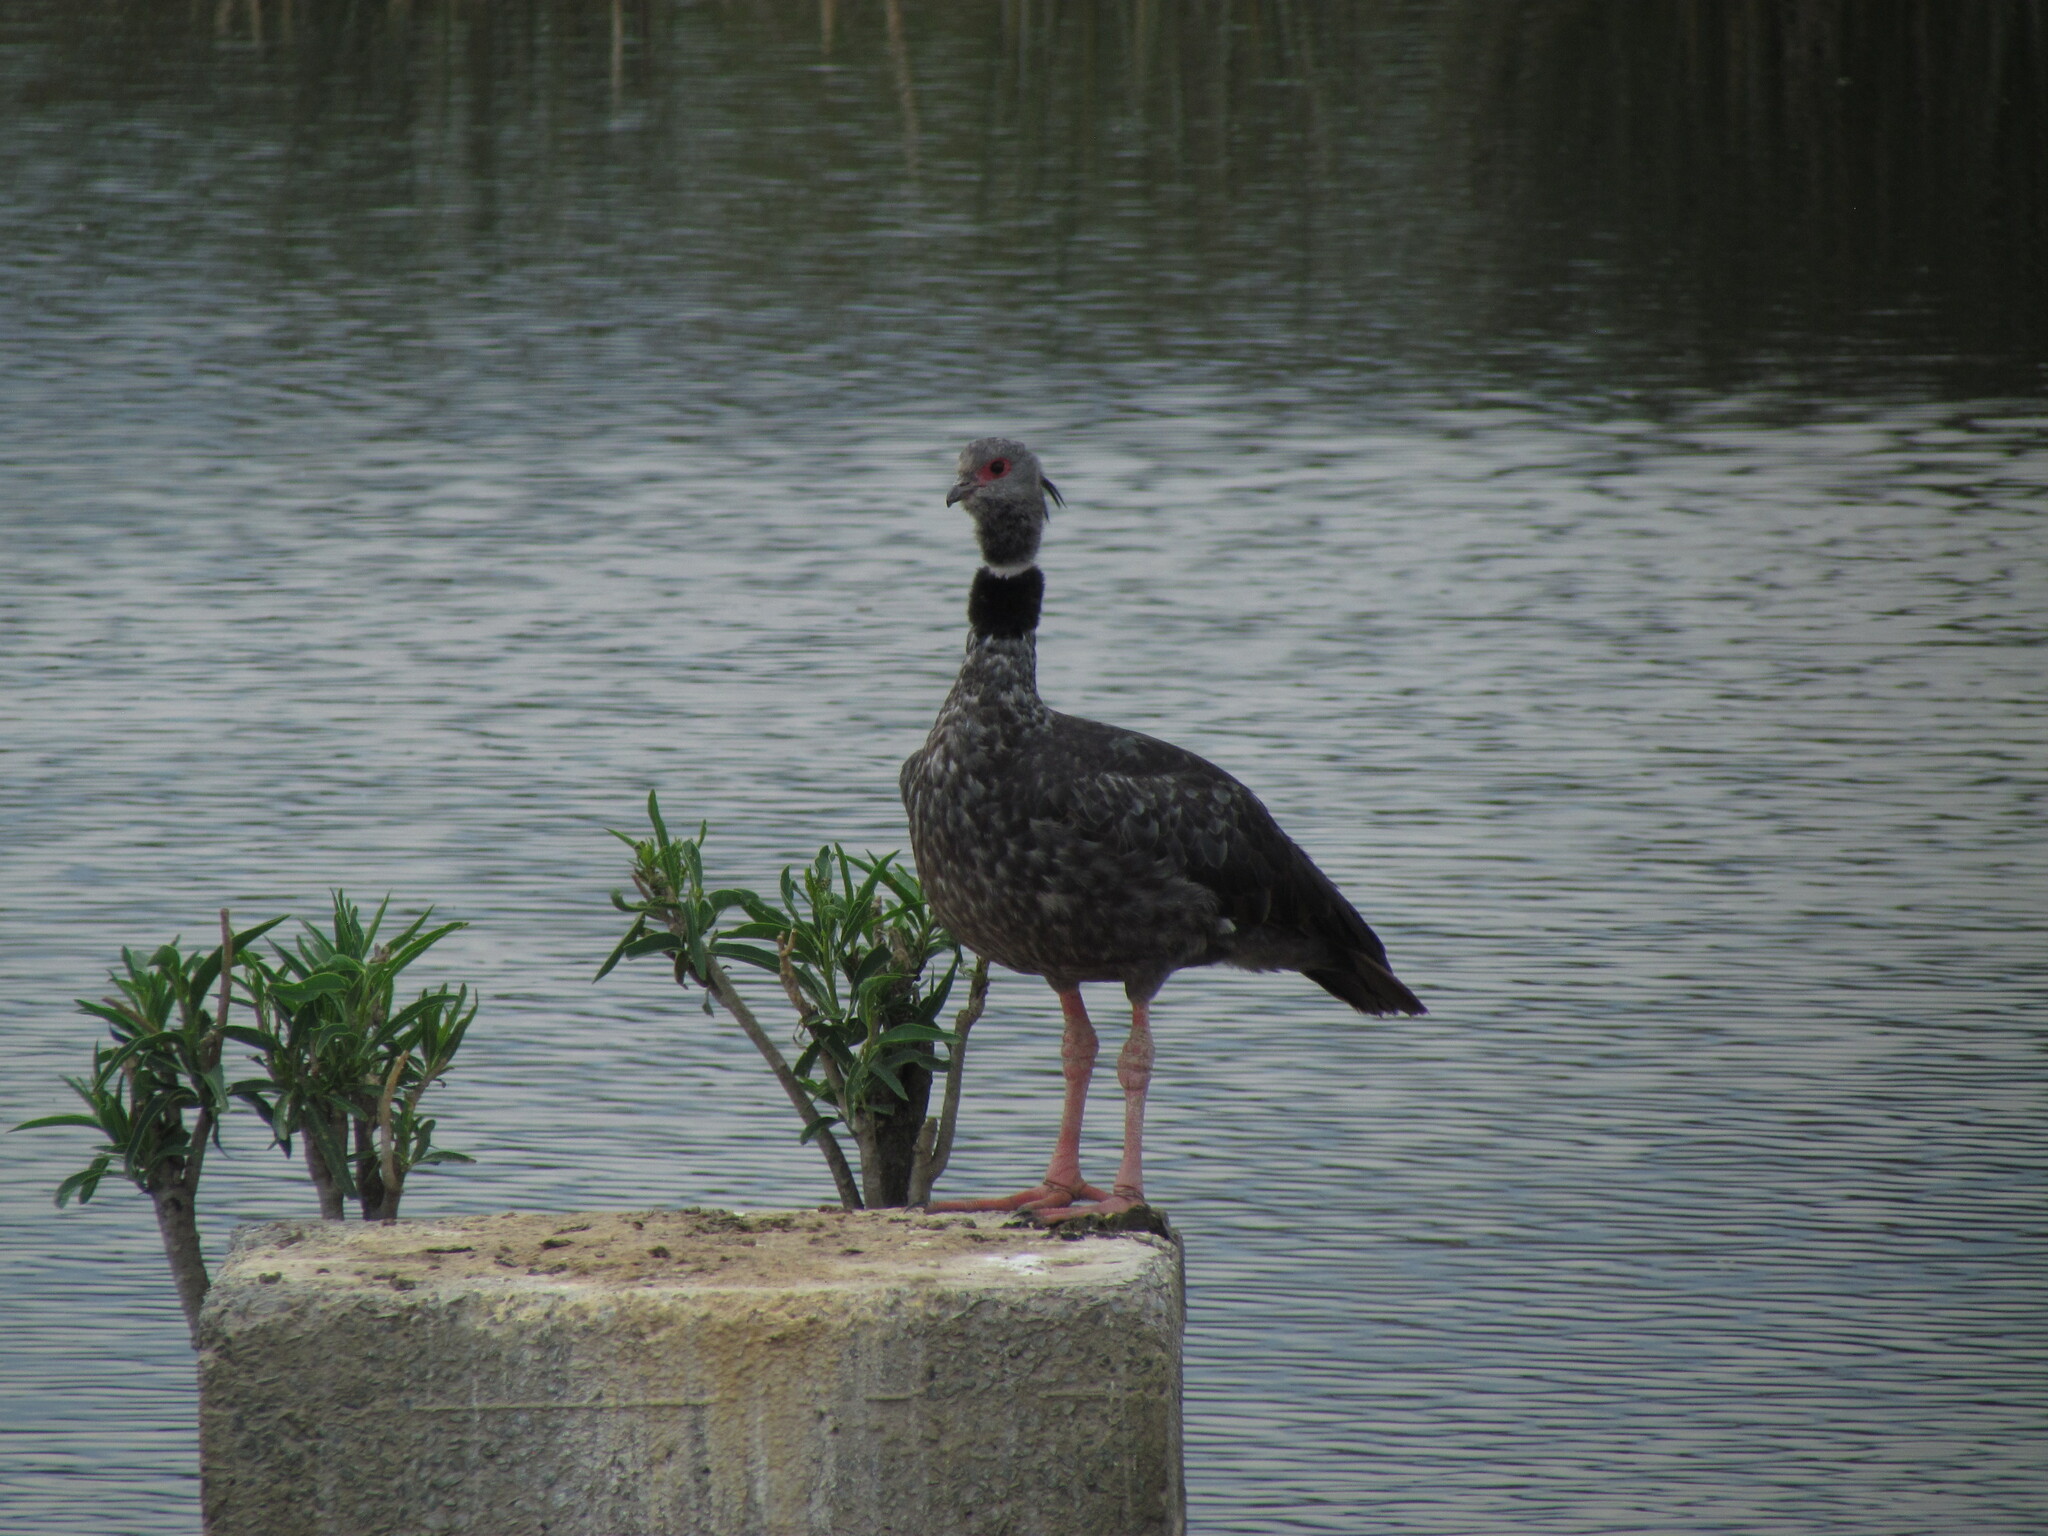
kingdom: Animalia
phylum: Chordata
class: Aves
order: Anseriformes
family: Anhimidae
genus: Chauna
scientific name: Chauna torquata
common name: Southern screamer
